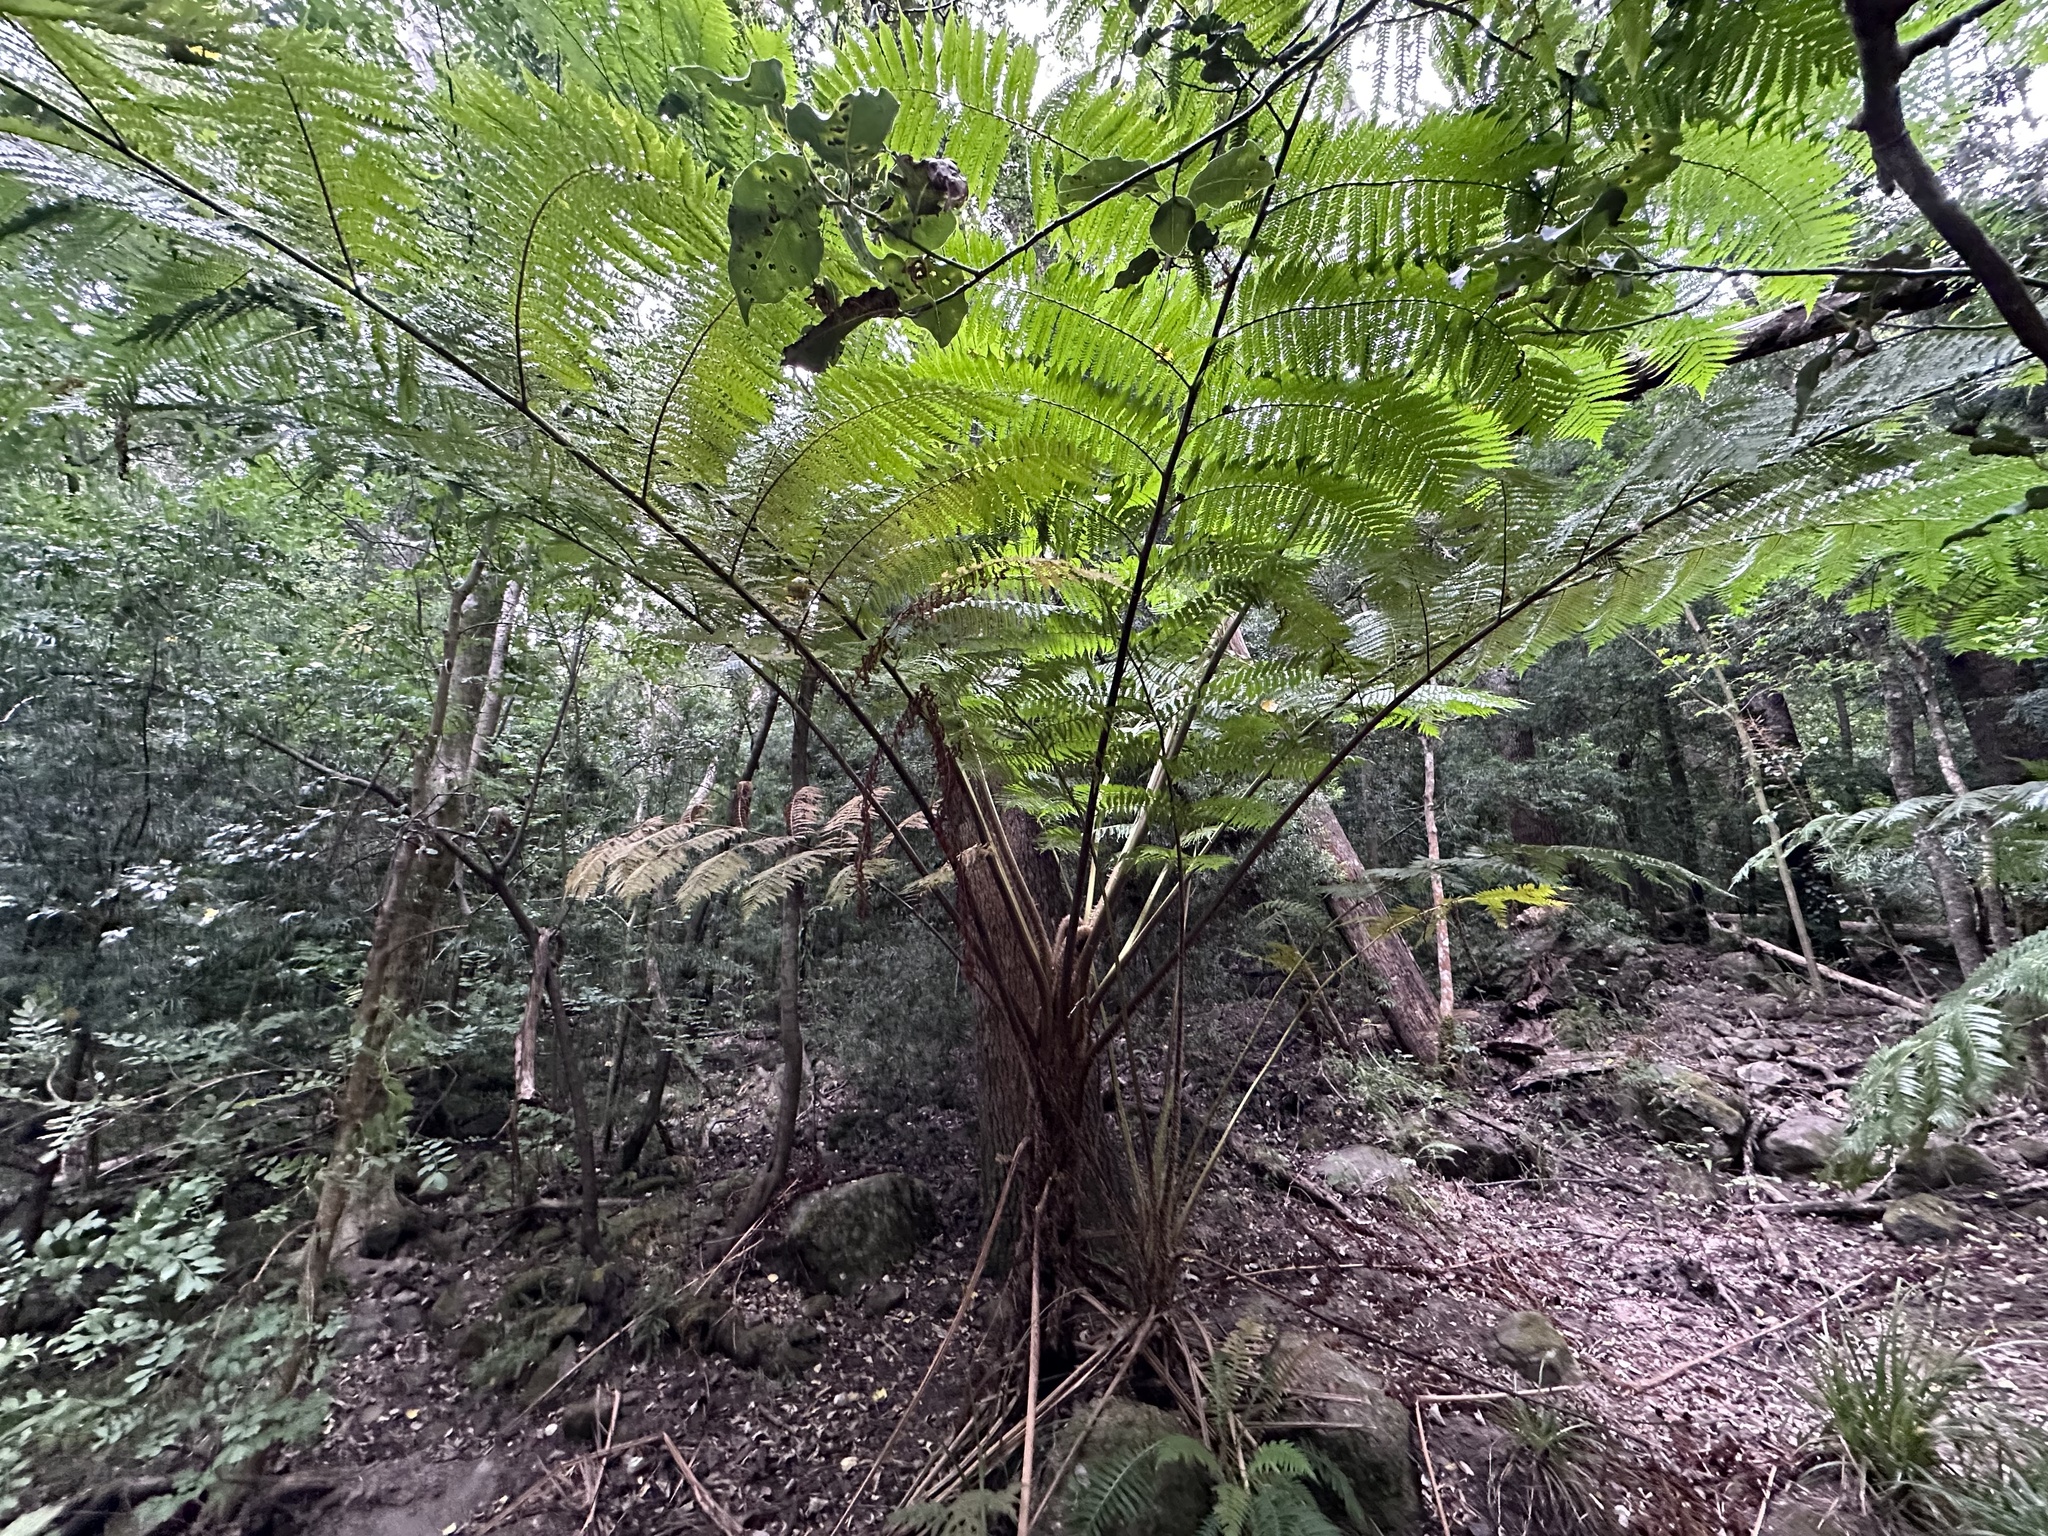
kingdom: Plantae
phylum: Tracheophyta
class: Polypodiopsida
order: Cyatheales
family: Cyatheaceae
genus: Sphaeropteris
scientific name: Sphaeropteris cooperi
